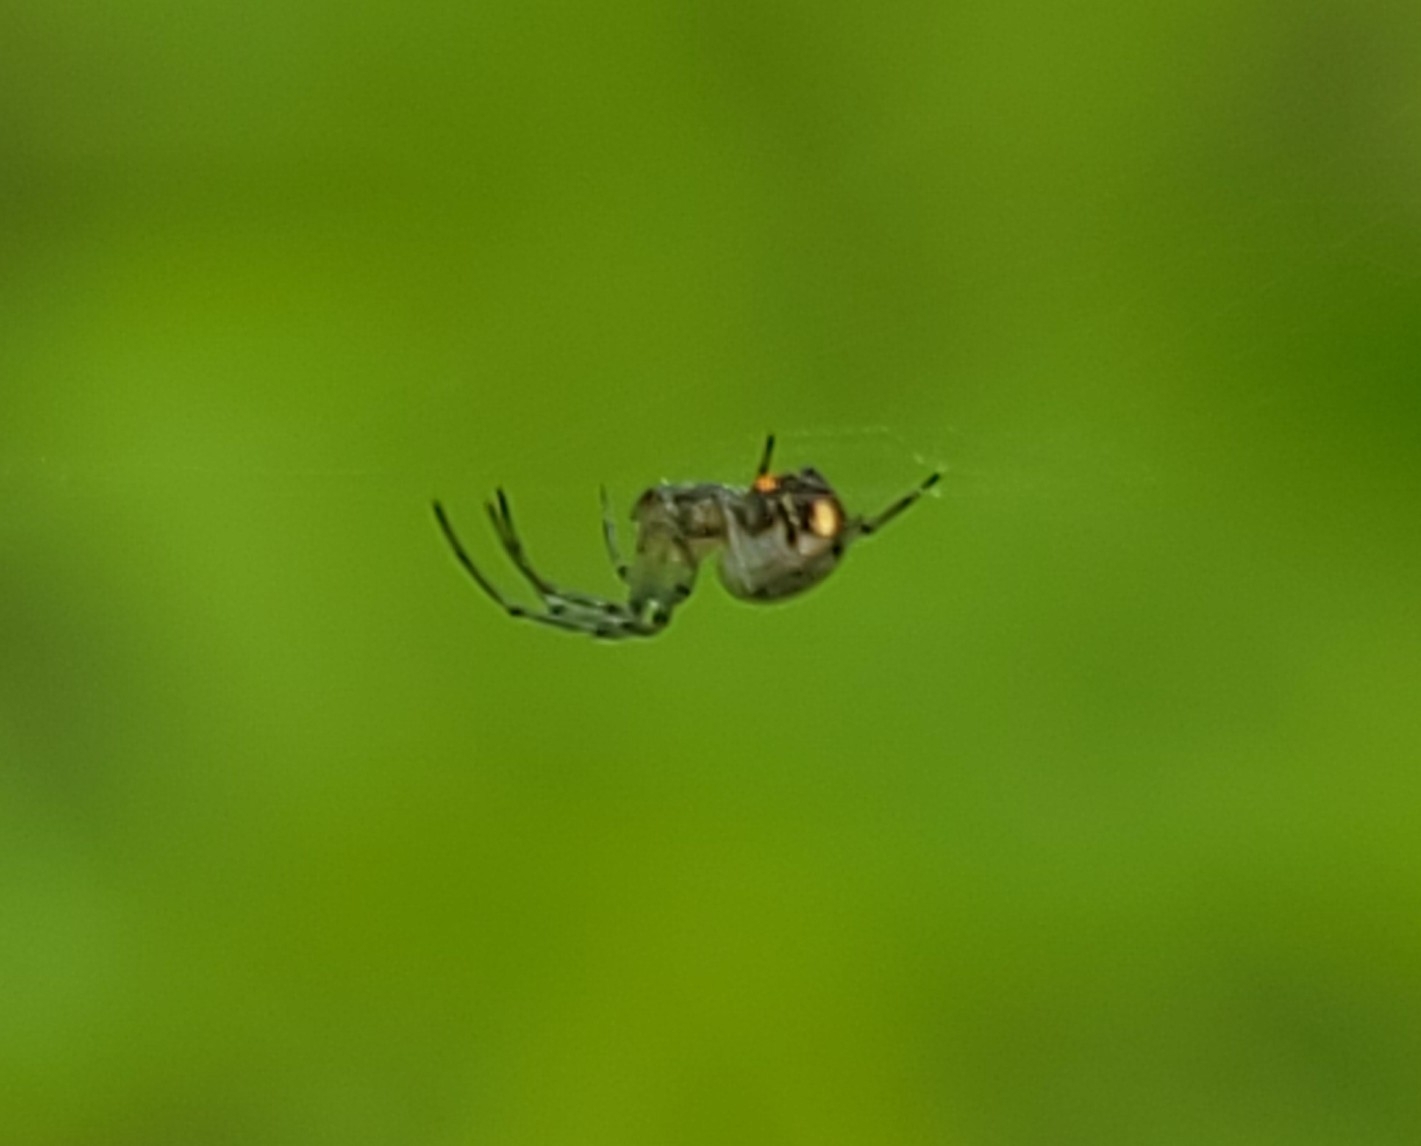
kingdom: Animalia
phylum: Arthropoda
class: Arachnida
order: Araneae
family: Tetragnathidae
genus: Leucauge
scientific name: Leucauge venusta
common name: Longjawed orb weavers
